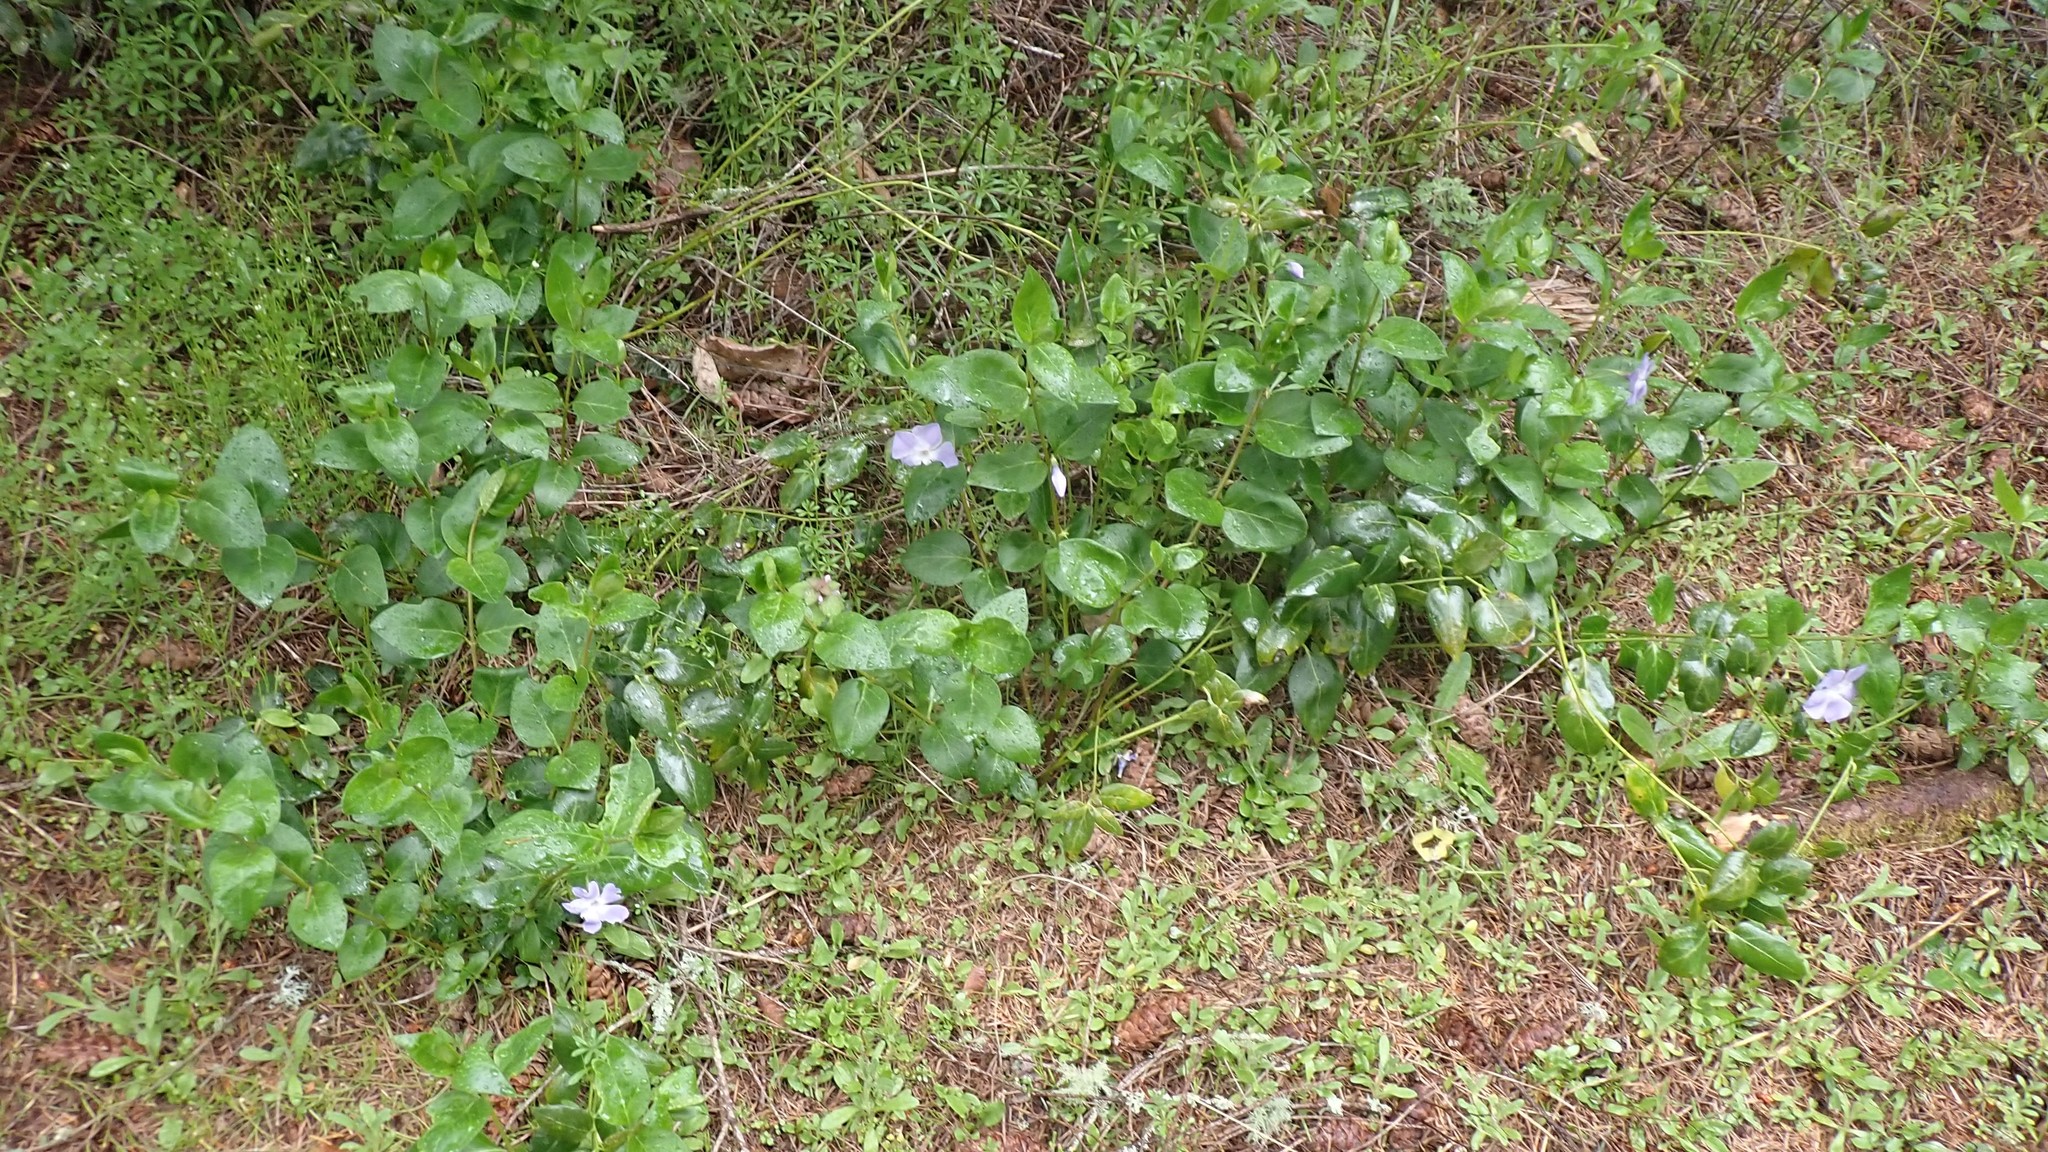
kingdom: Plantae
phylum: Tracheophyta
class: Magnoliopsida
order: Gentianales
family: Apocynaceae
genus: Vinca
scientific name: Vinca major
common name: Greater periwinkle
